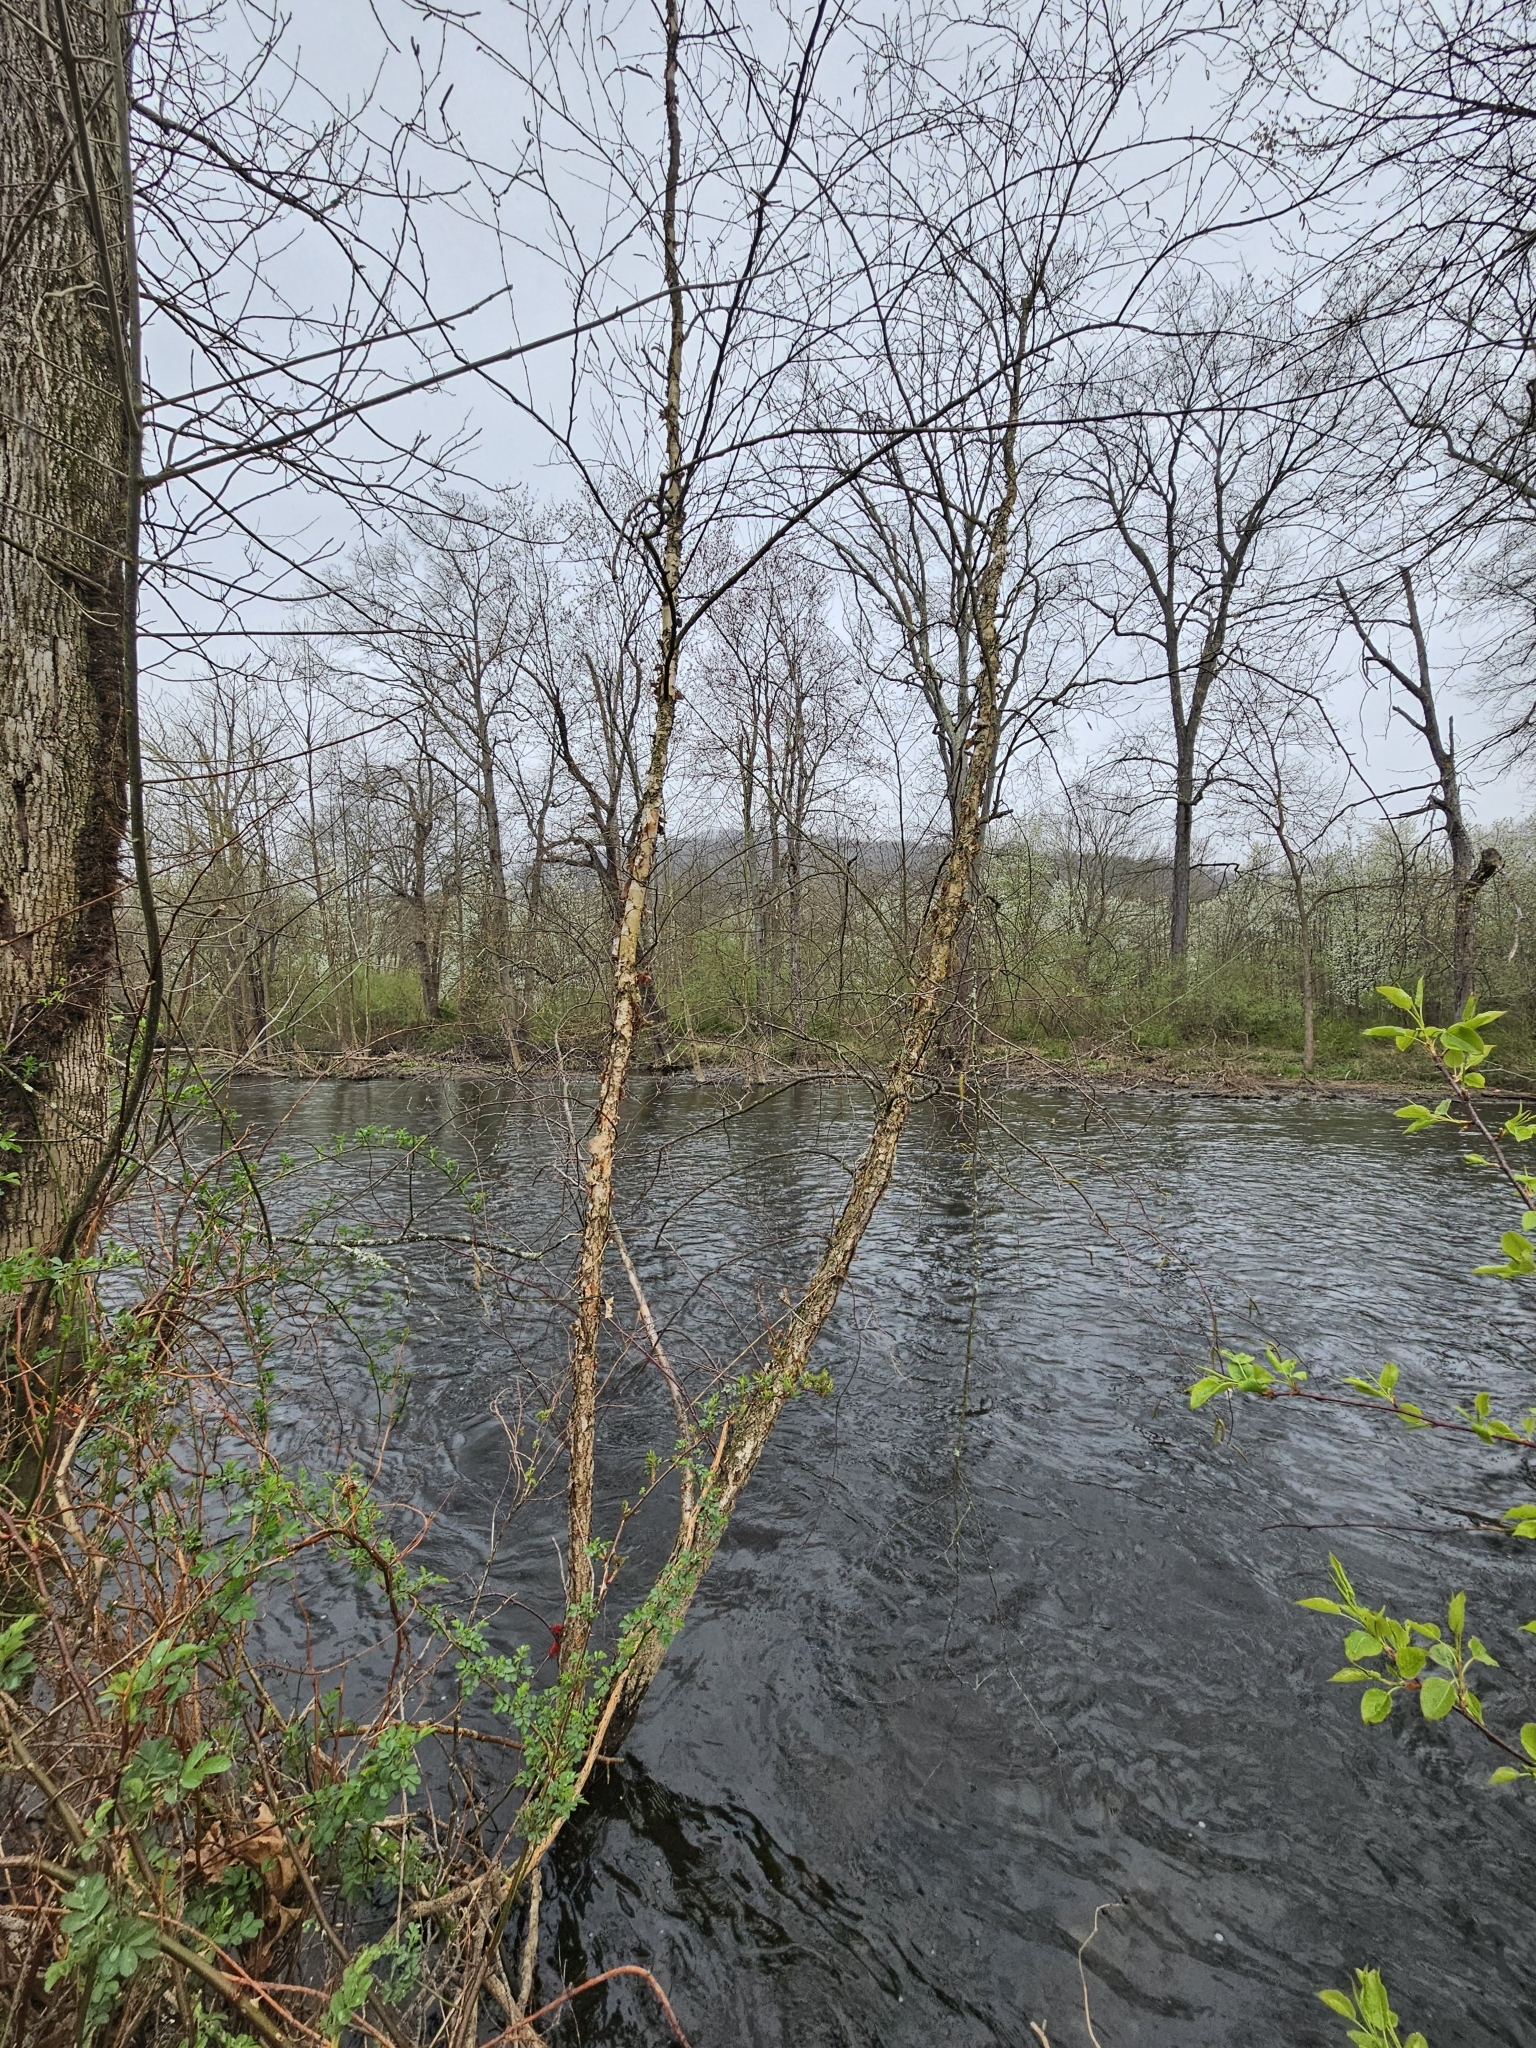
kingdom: Plantae
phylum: Tracheophyta
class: Magnoliopsida
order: Fagales
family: Betulaceae
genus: Betula
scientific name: Betula nigra
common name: Black birch
